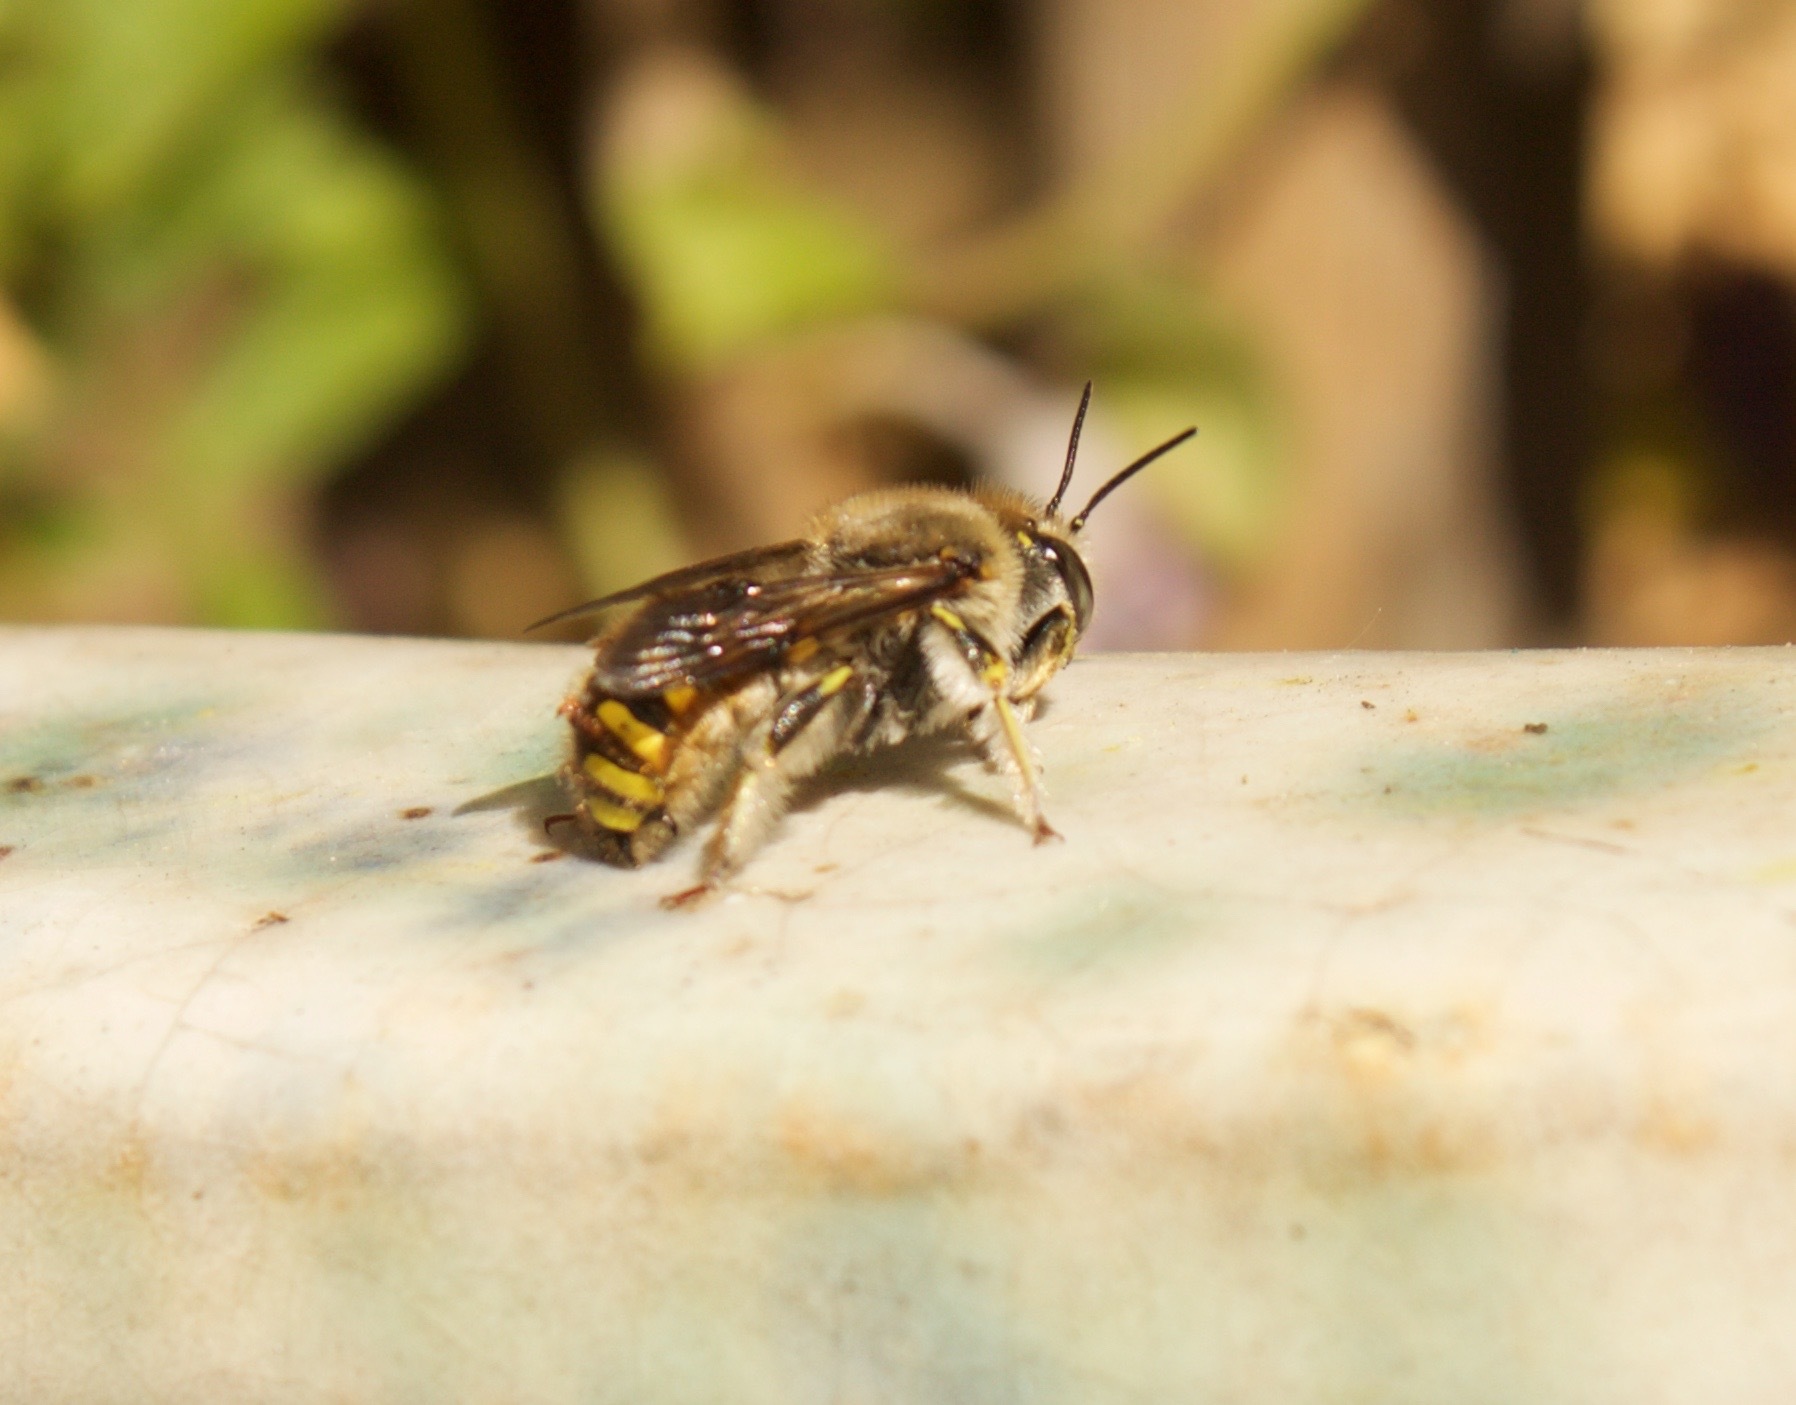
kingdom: Animalia
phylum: Arthropoda
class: Insecta
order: Hymenoptera
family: Megachilidae
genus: Anthidium
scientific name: Anthidium manicatum
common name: Wool carder bee
